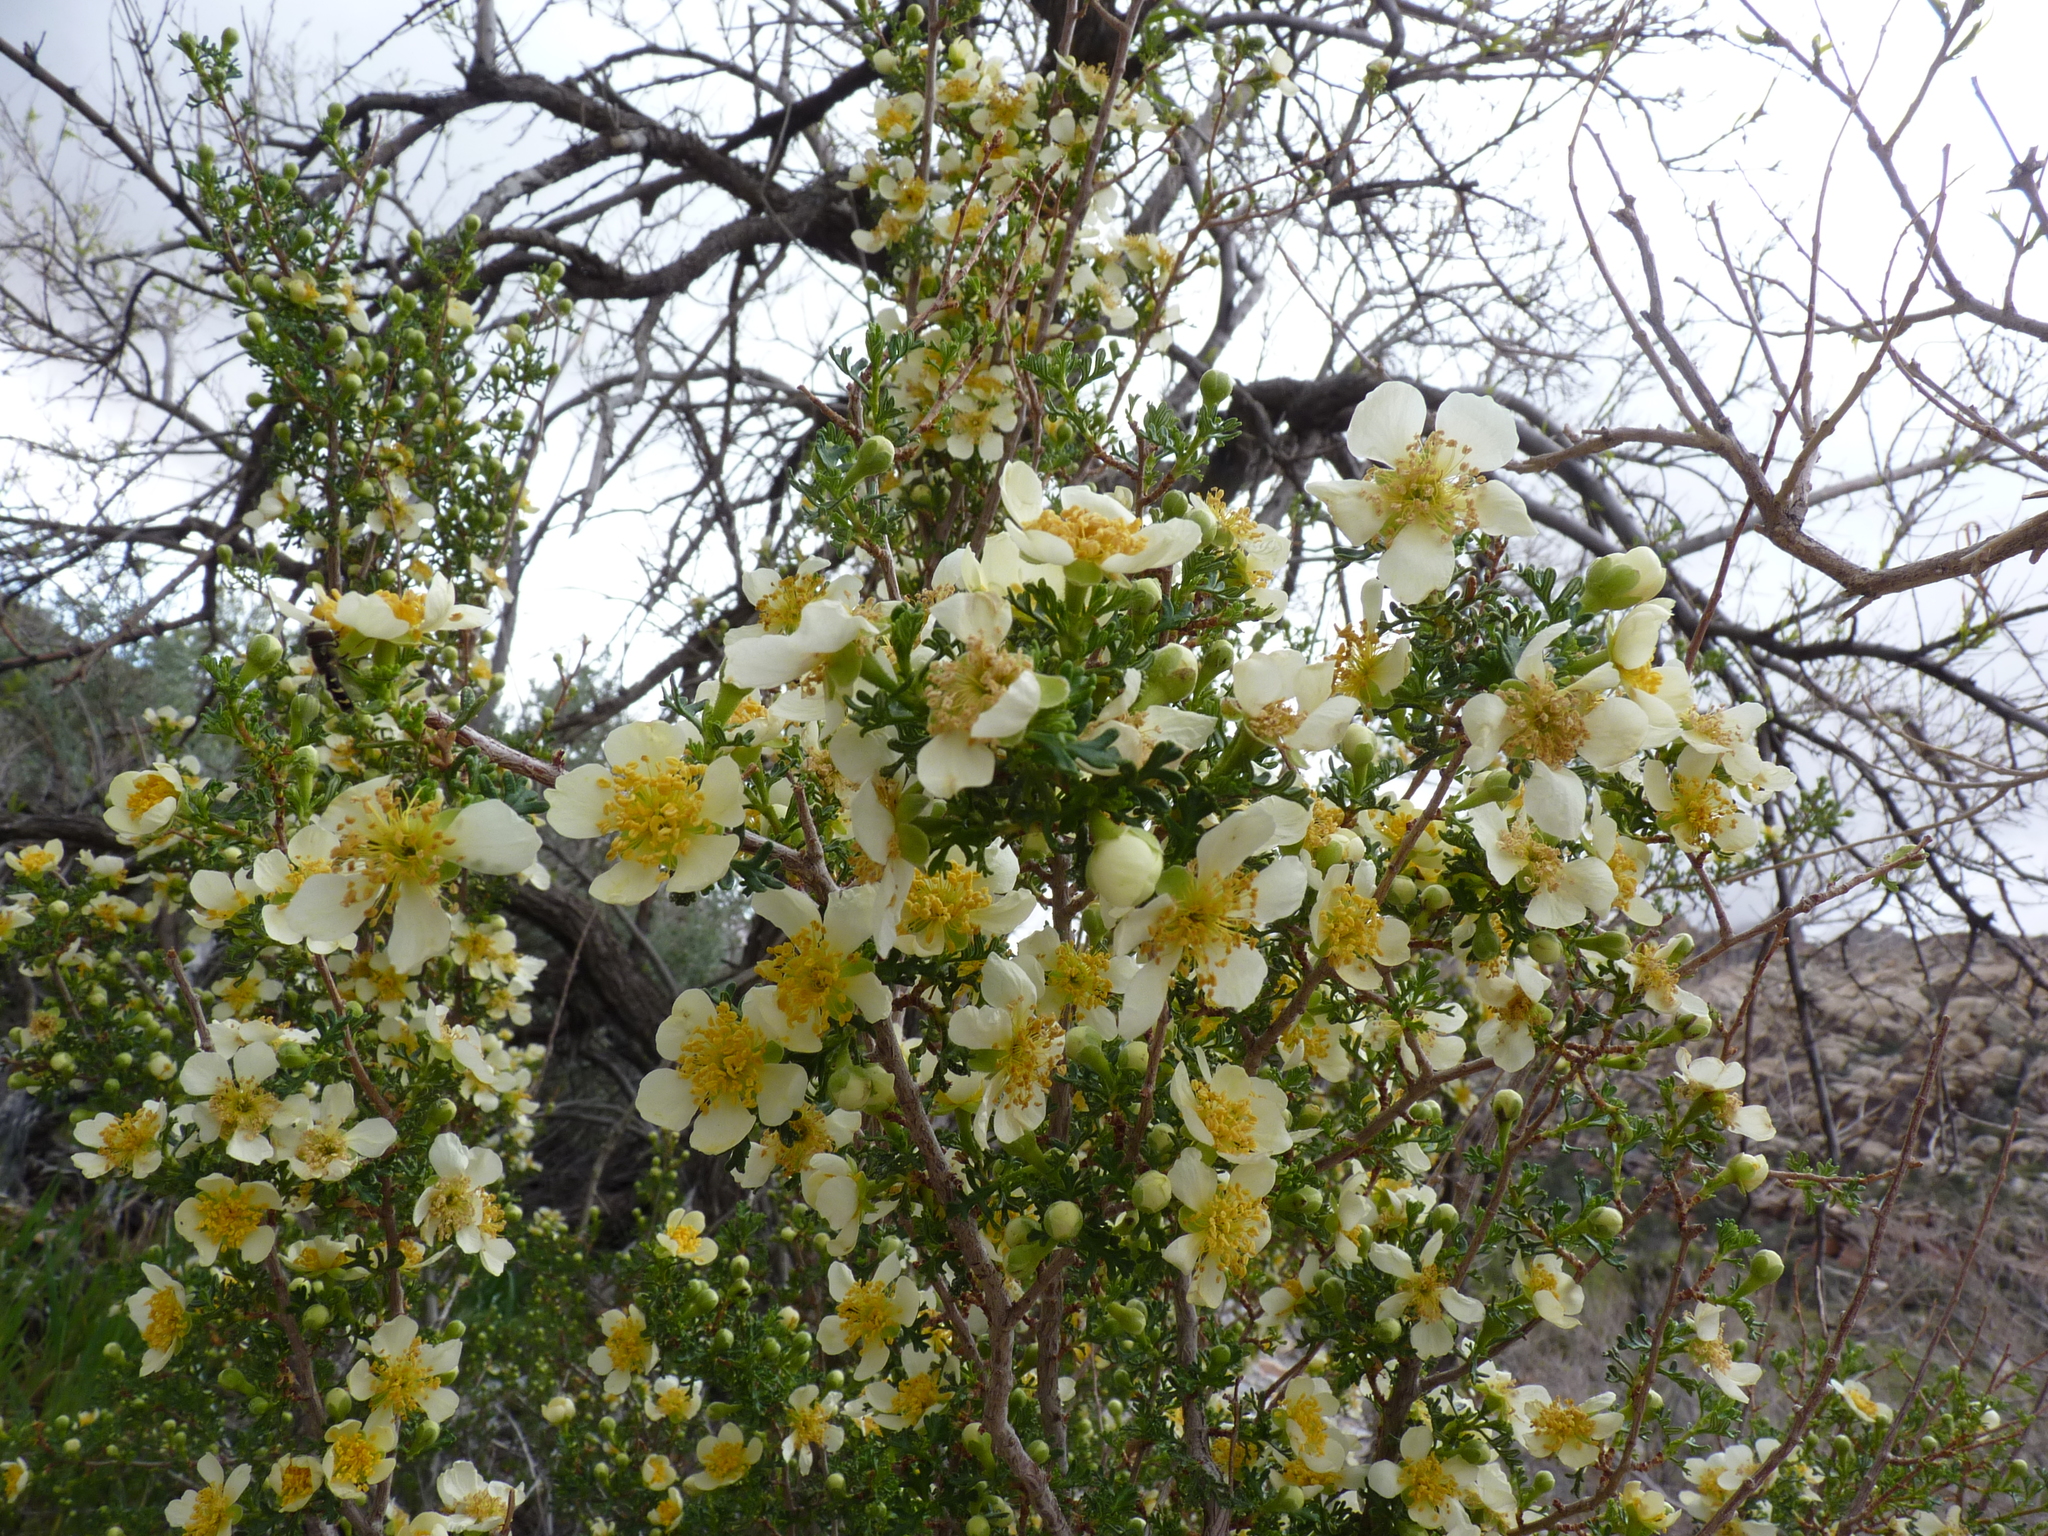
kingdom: Plantae
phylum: Tracheophyta
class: Magnoliopsida
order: Rosales
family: Rosaceae
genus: Purshia
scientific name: Purshia stansburiana
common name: Stansbury's cliffrose
